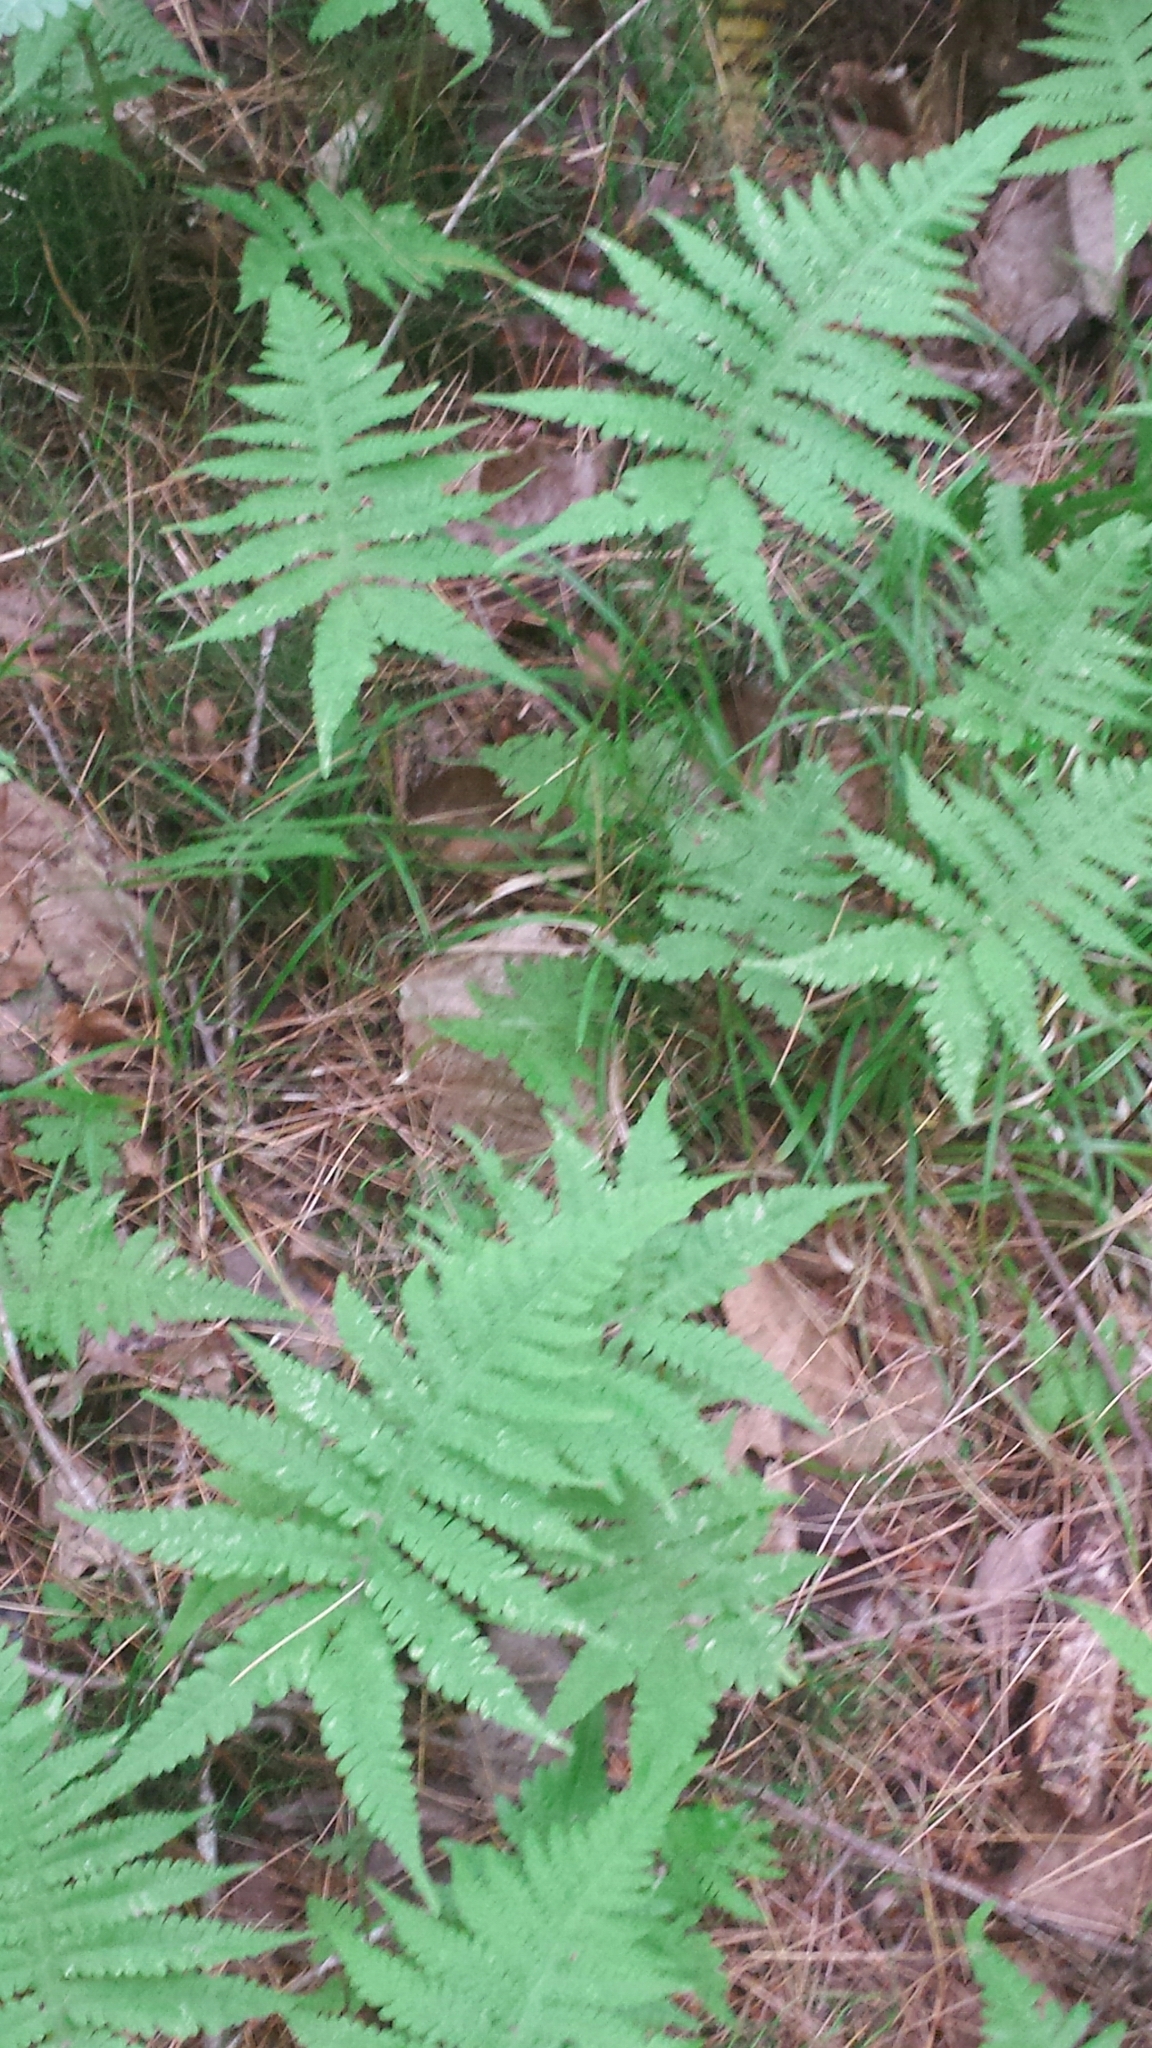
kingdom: Plantae
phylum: Tracheophyta
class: Polypodiopsida
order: Polypodiales
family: Thelypteridaceae
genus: Phegopteris
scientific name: Phegopteris connectilis
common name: Beech fern
